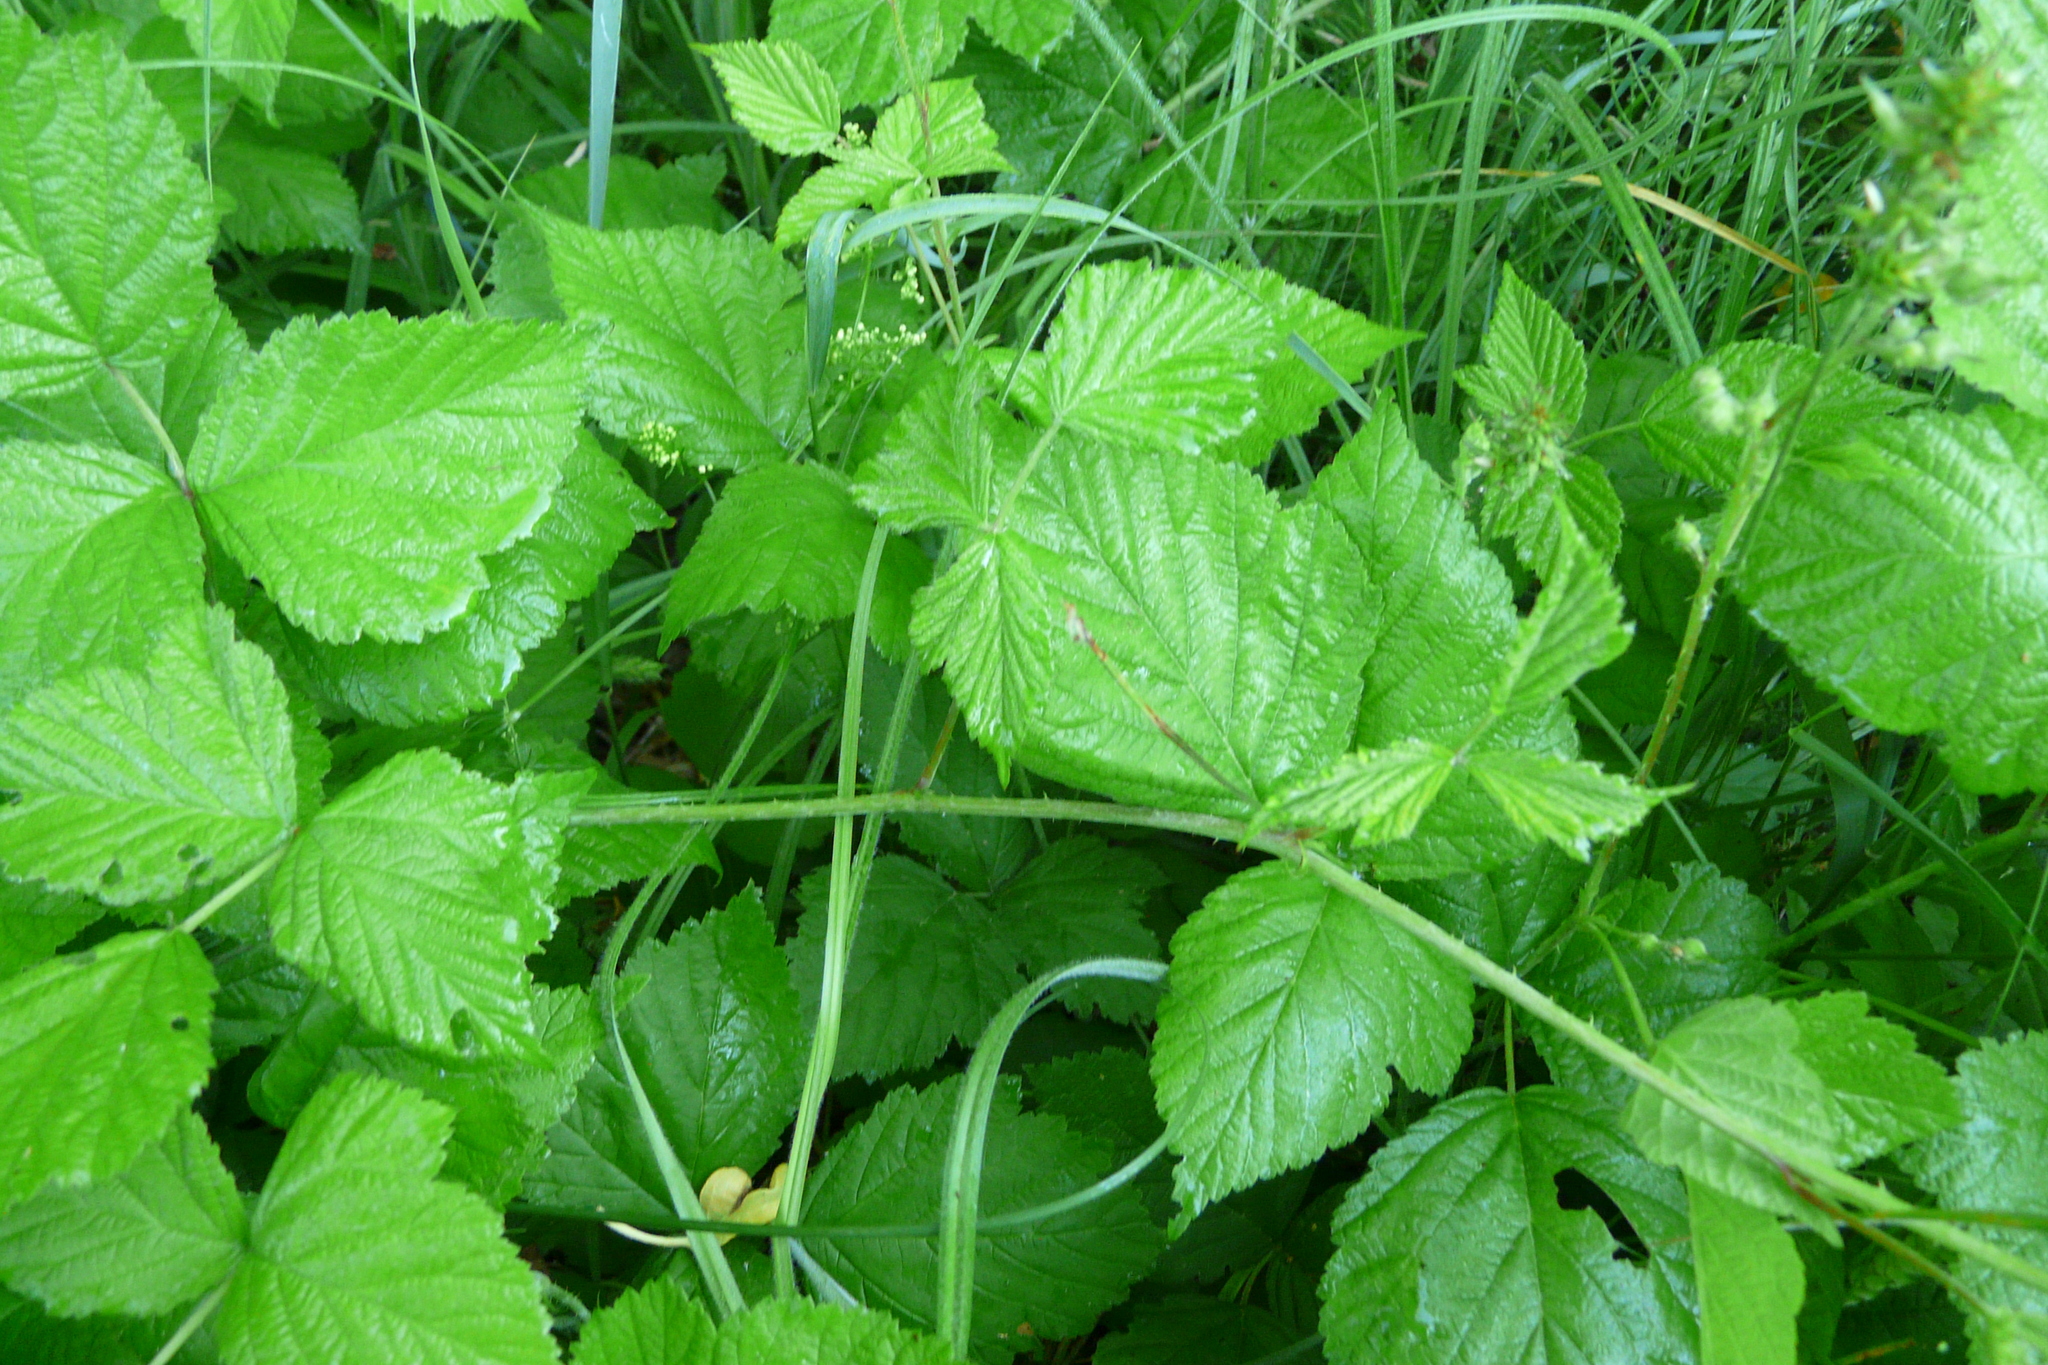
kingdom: Plantae
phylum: Tracheophyta
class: Magnoliopsida
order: Rosales
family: Rosaceae
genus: Rubus
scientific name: Rubus caesius
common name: Dewberry
